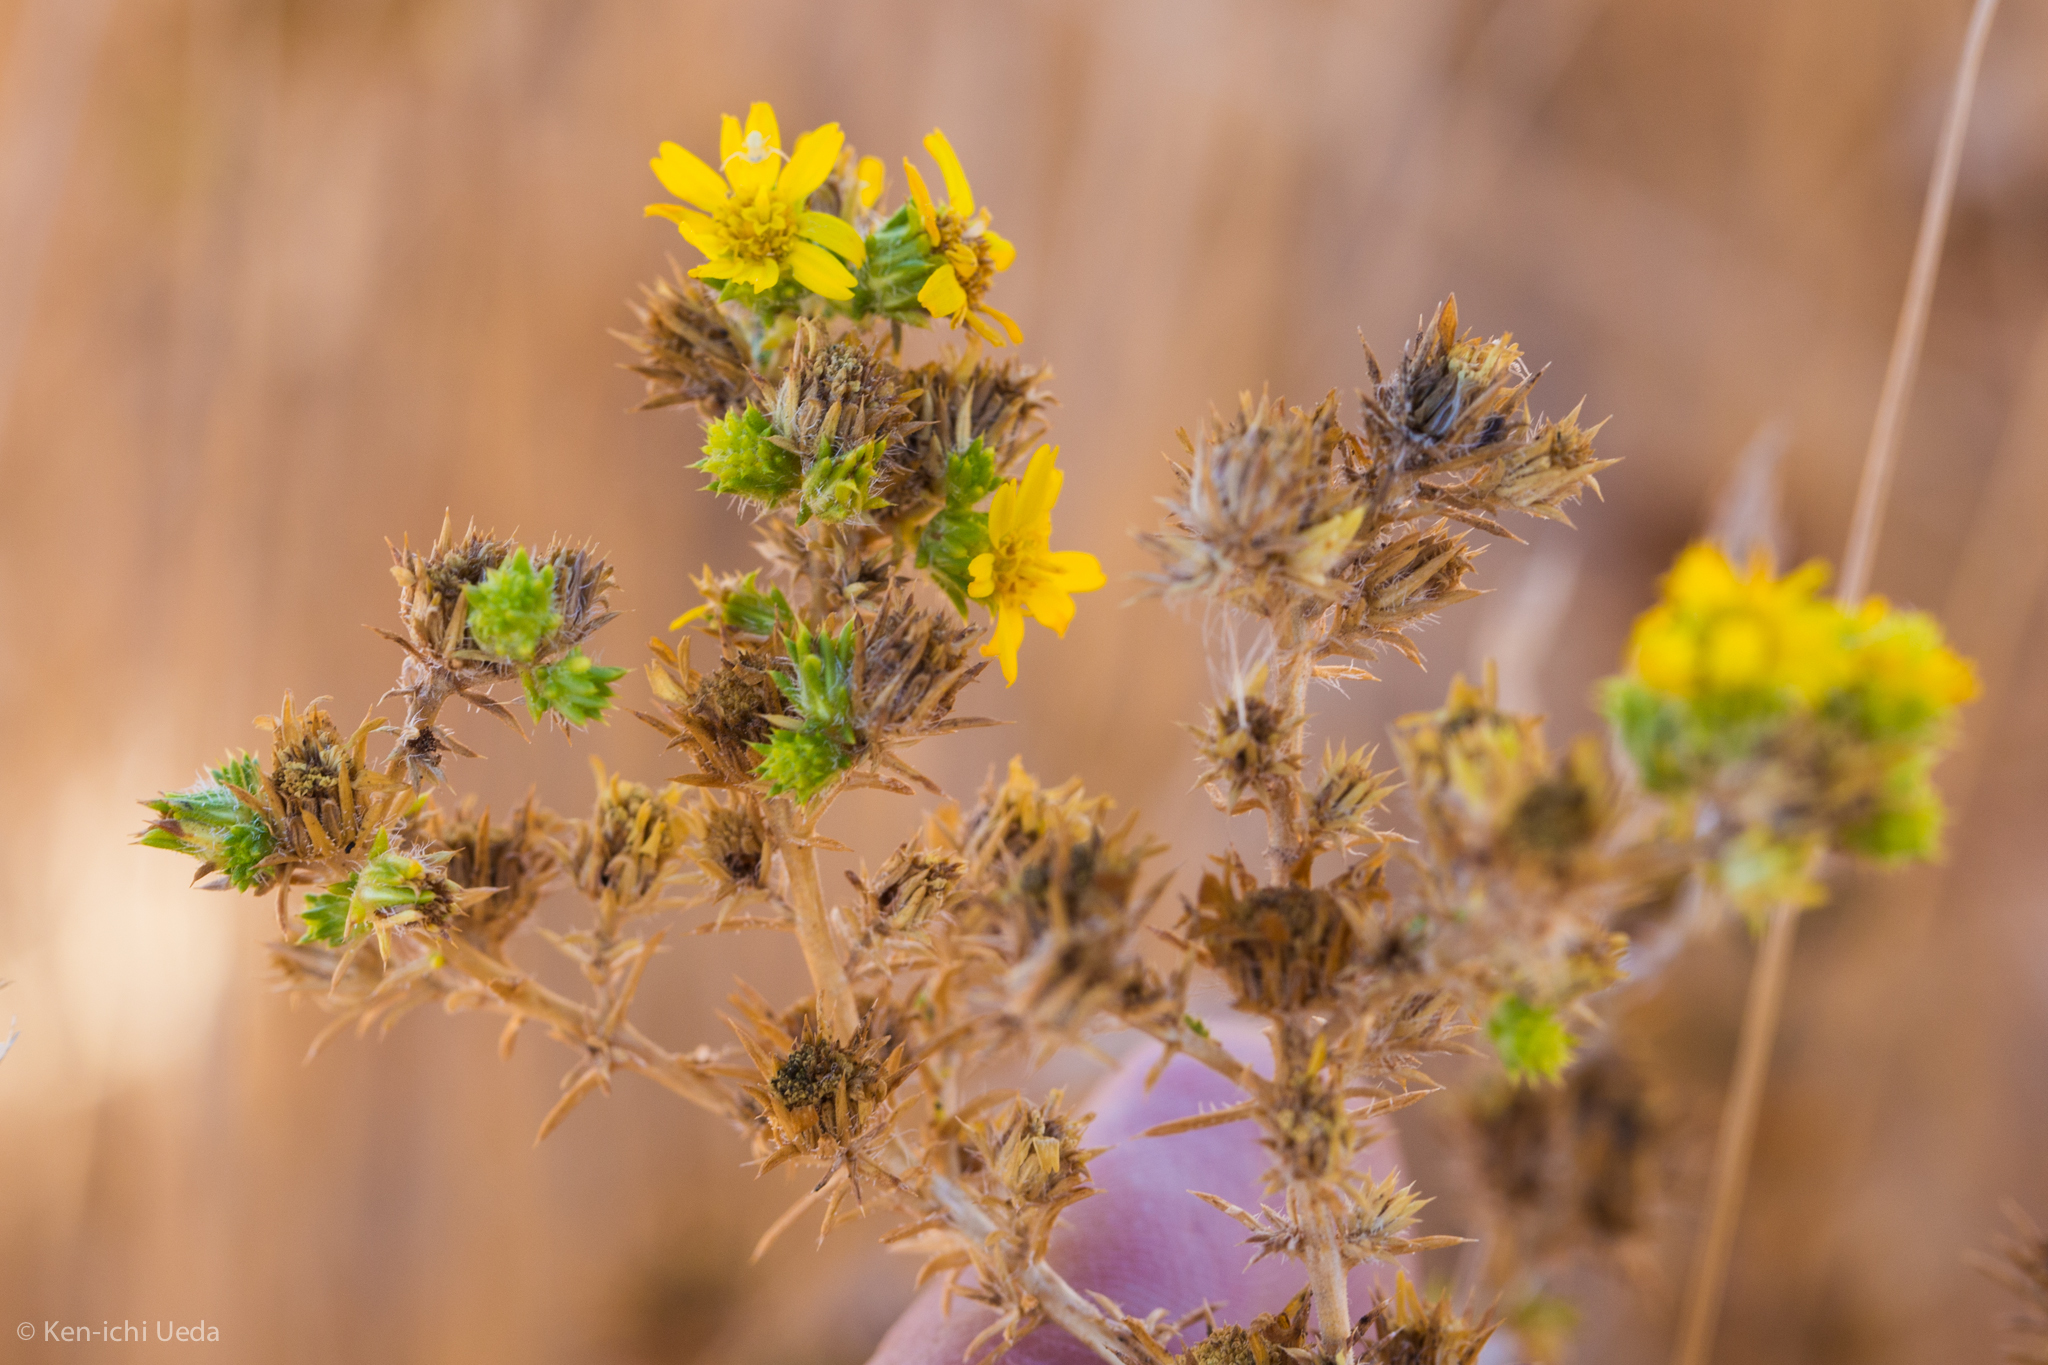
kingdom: Plantae
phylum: Tracheophyta
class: Magnoliopsida
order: Asterales
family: Asteraceae
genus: Centromadia
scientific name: Centromadia parryi
